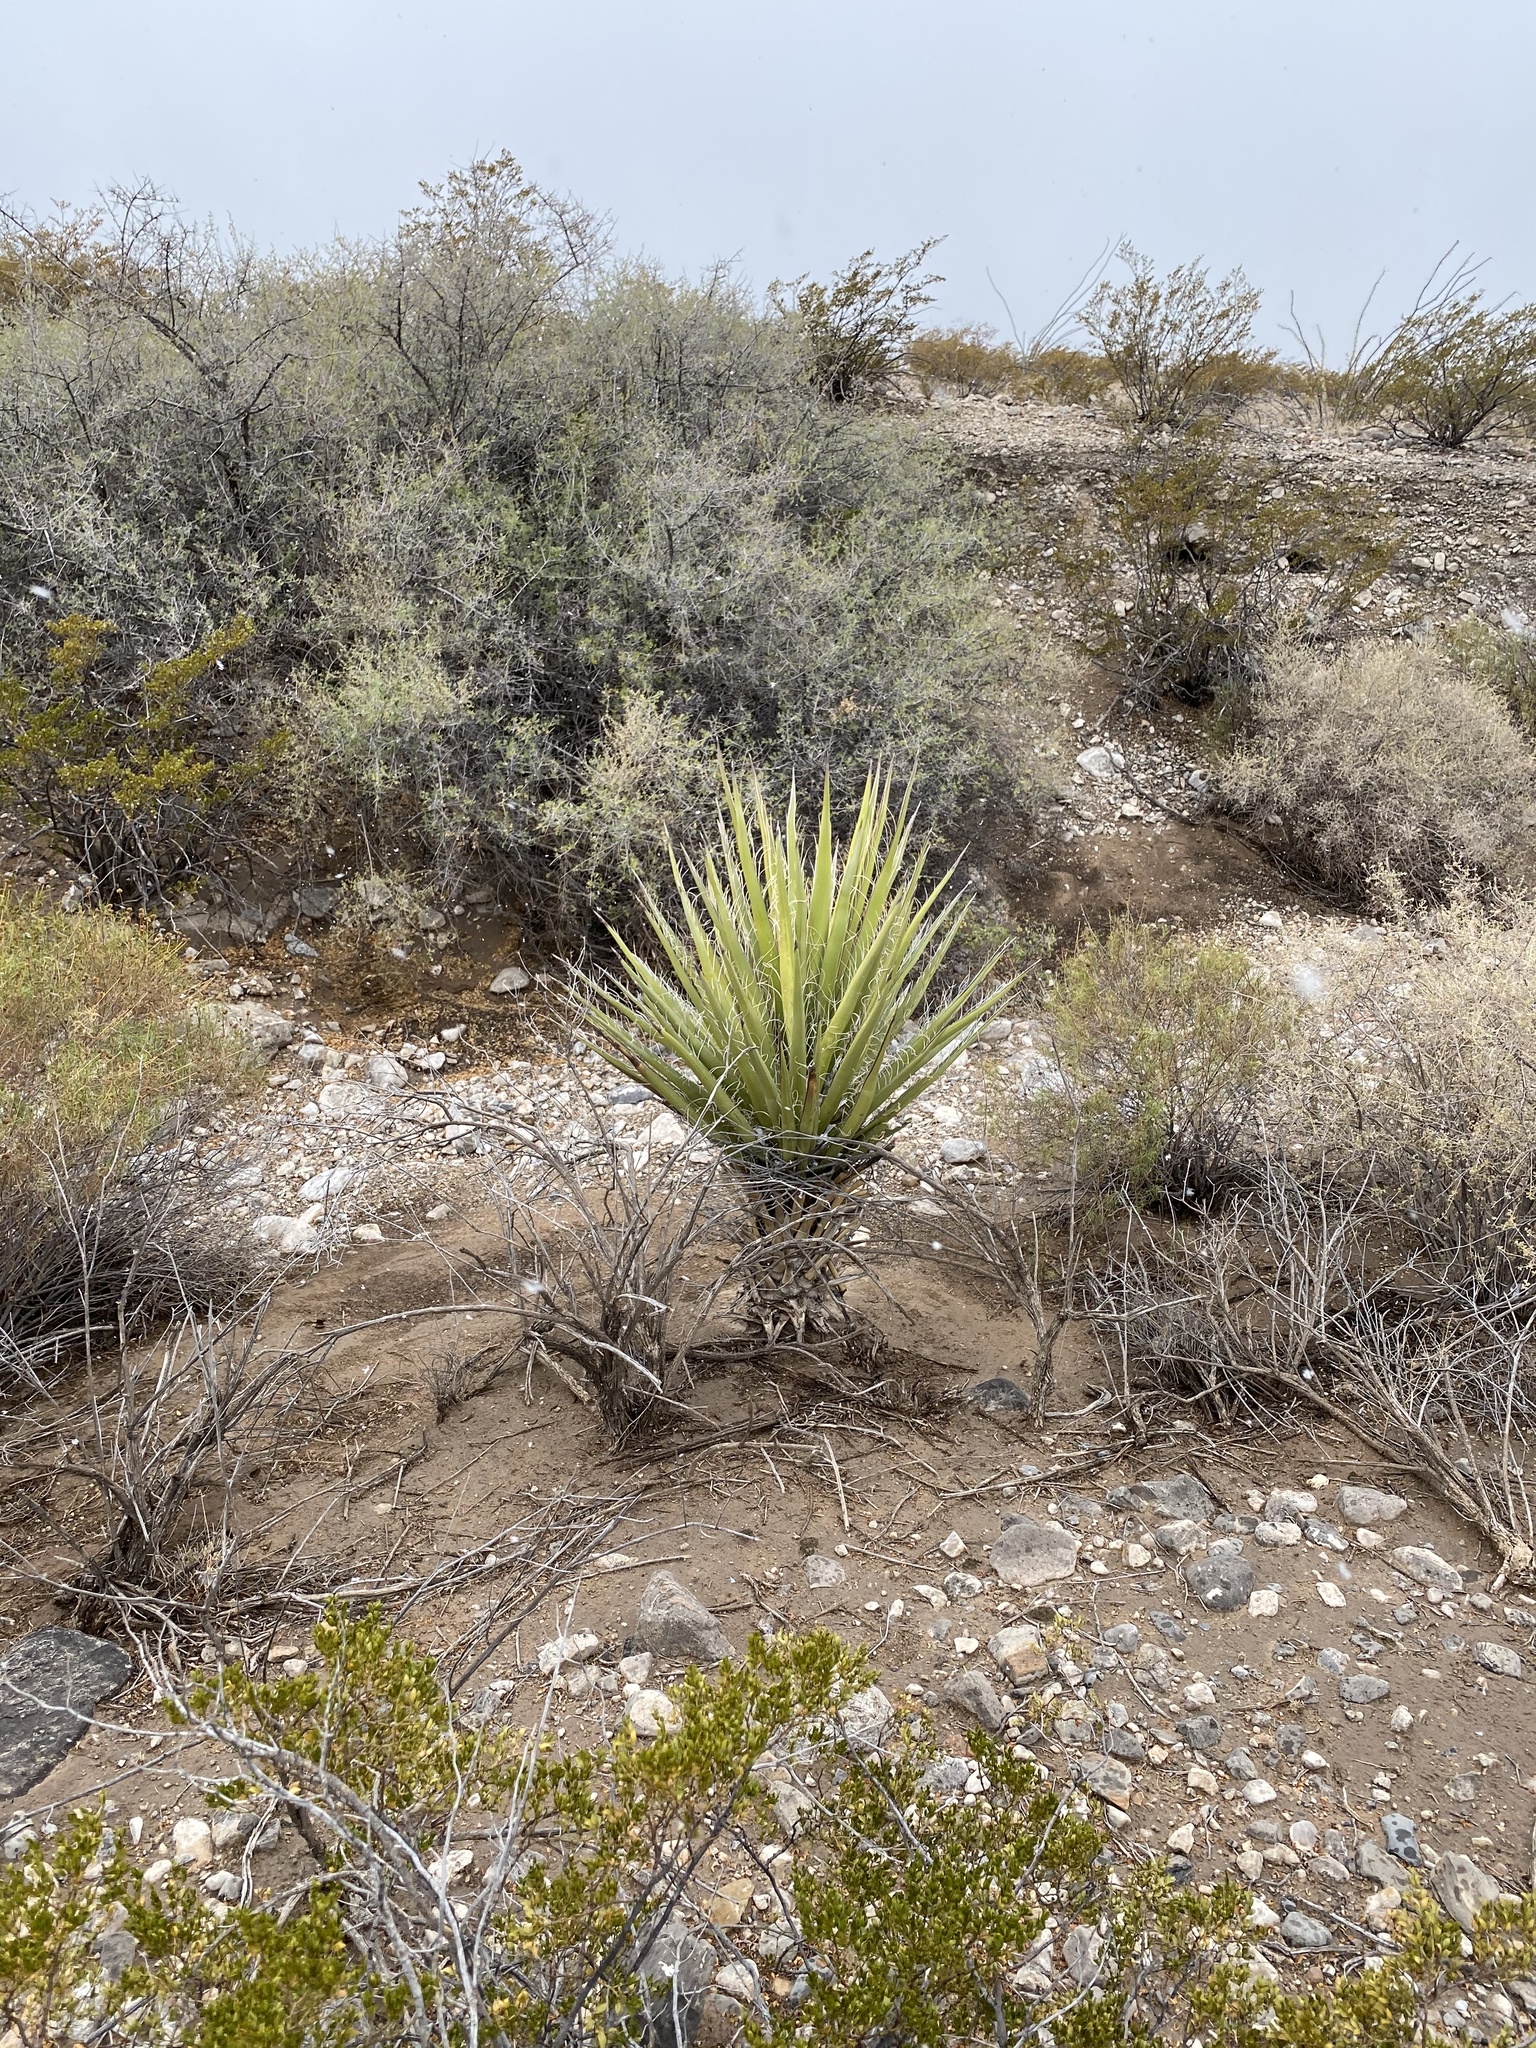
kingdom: Plantae
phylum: Tracheophyta
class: Liliopsida
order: Asparagales
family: Asparagaceae
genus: Yucca
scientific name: Yucca treculiana
